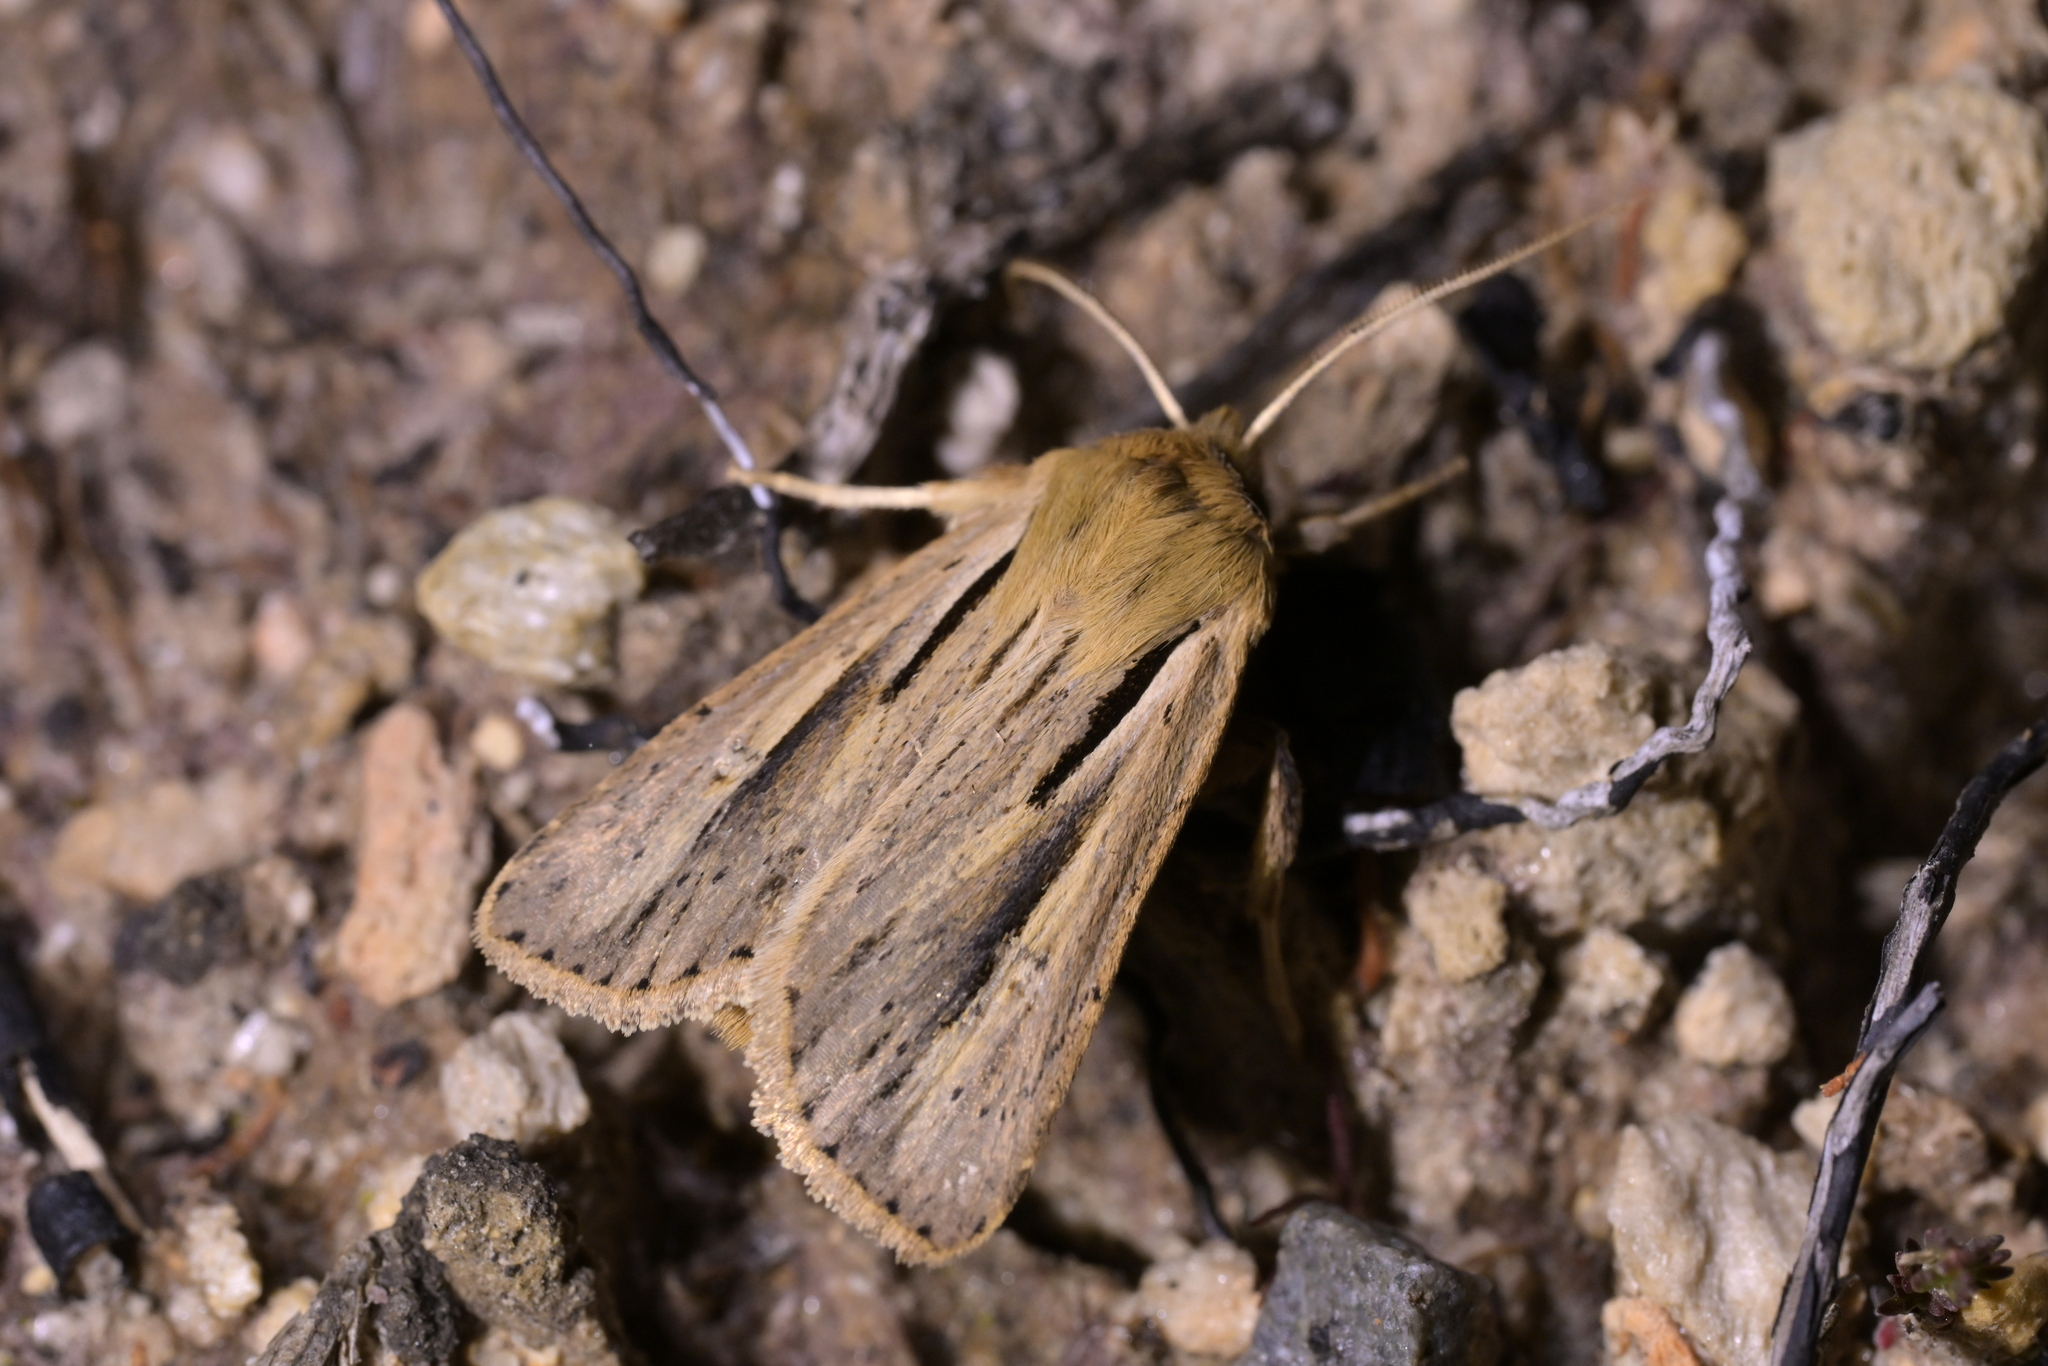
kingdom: Animalia
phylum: Arthropoda
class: Insecta
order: Lepidoptera
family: Noctuidae
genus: Ichneutica
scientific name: Ichneutica propria
